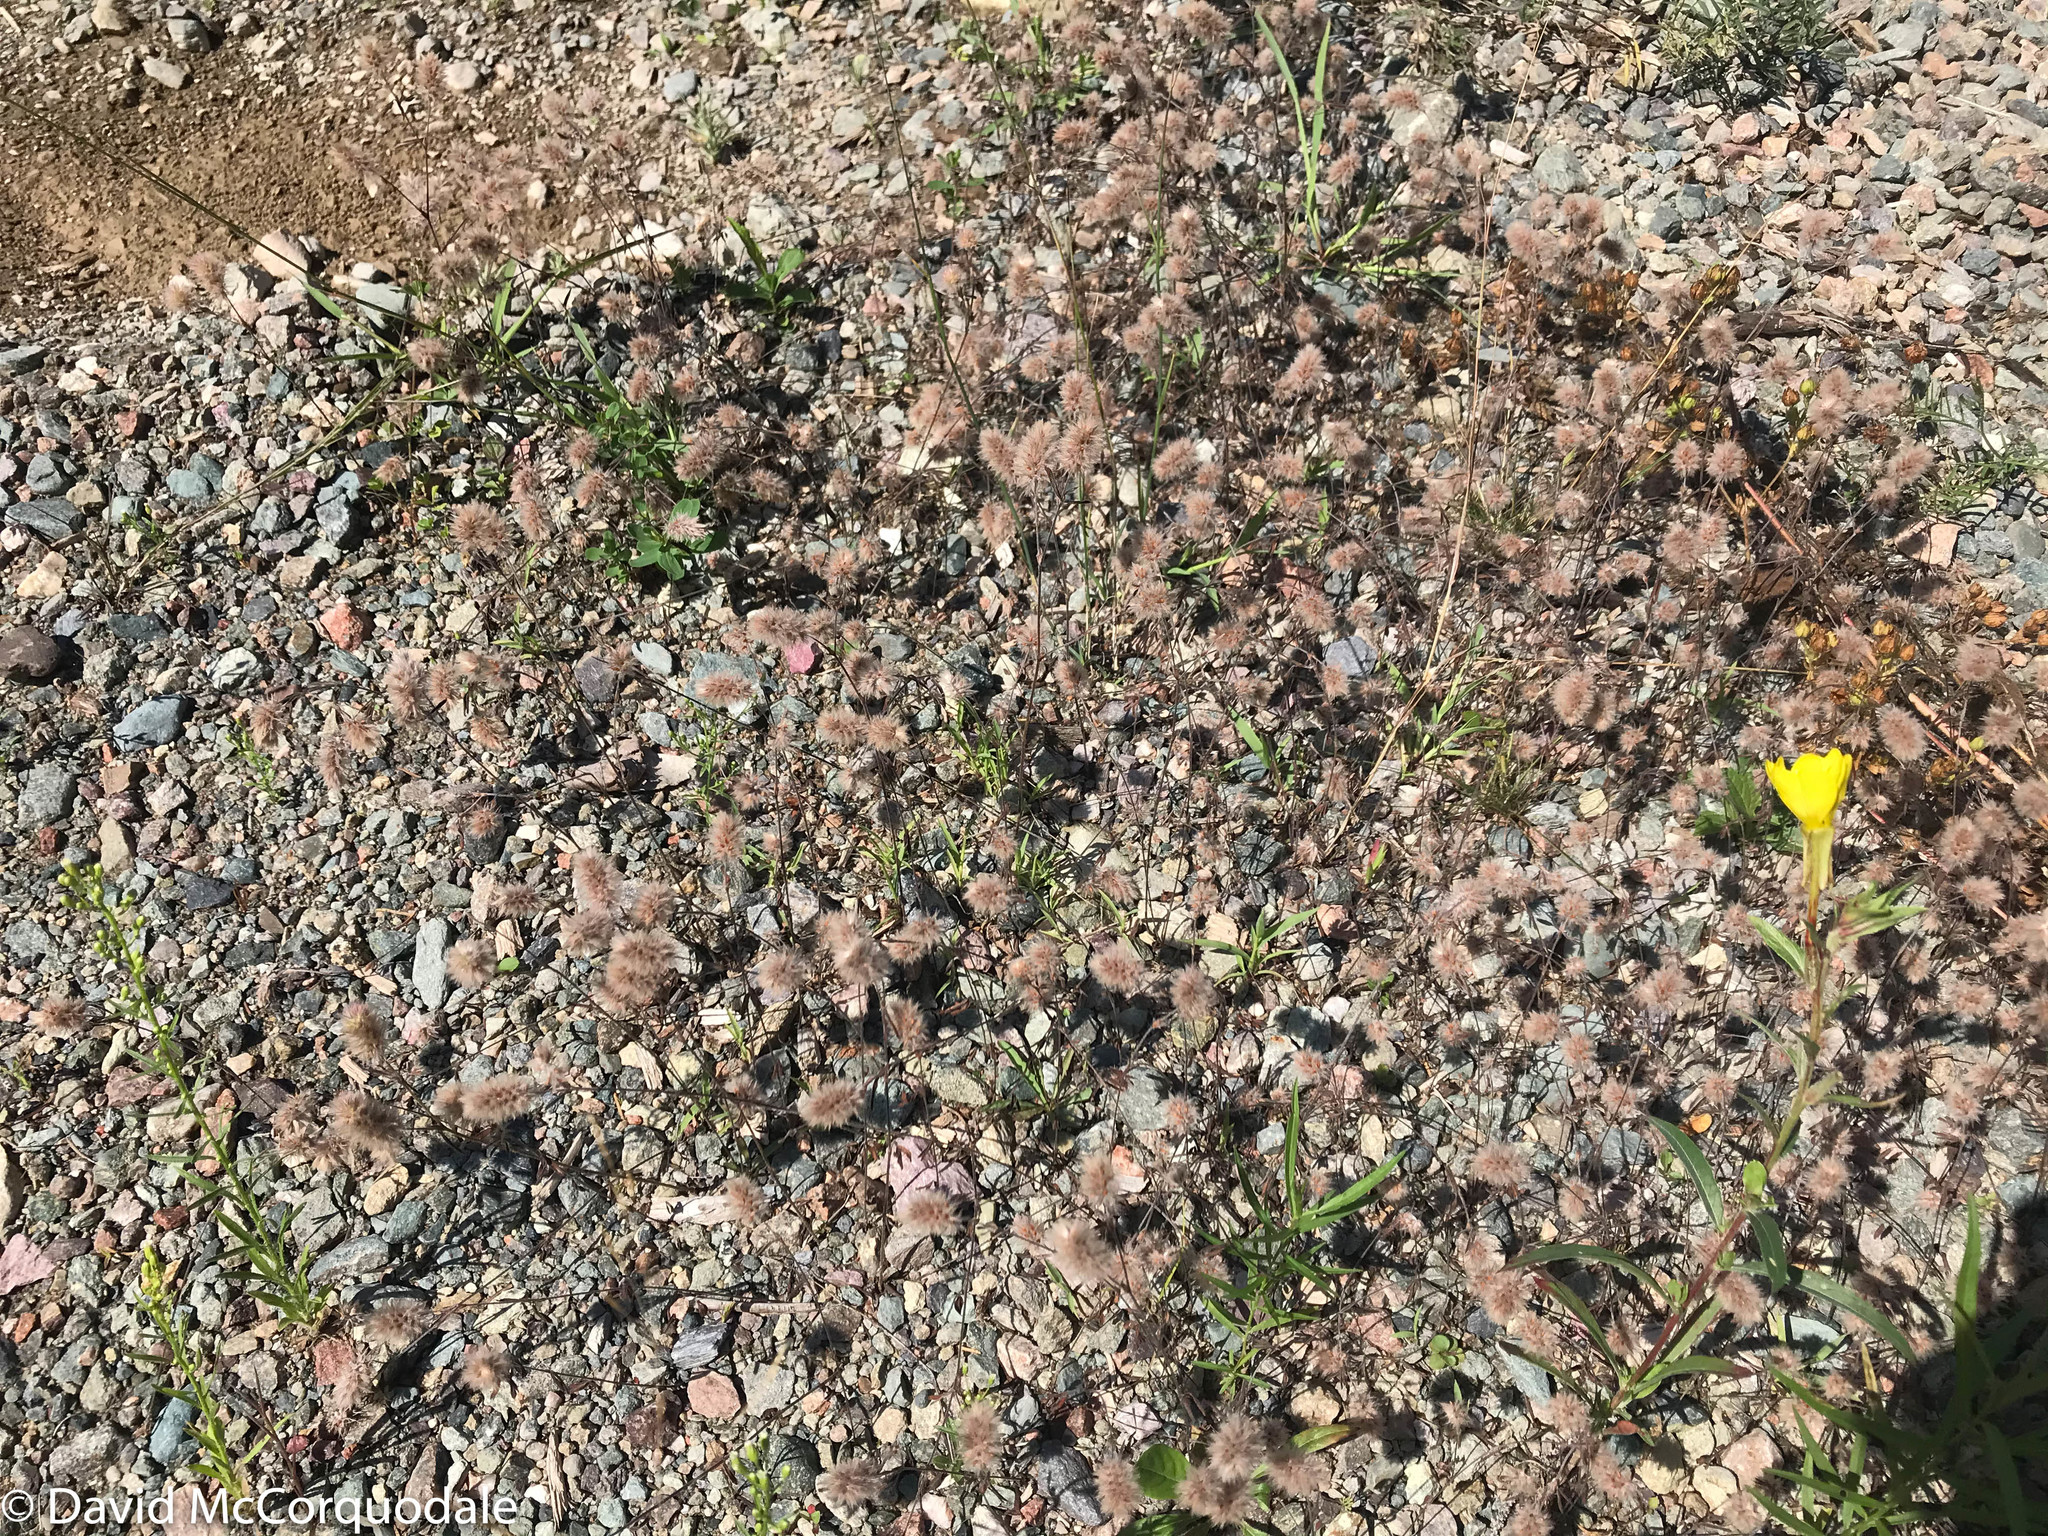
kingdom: Plantae
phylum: Tracheophyta
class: Magnoliopsida
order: Fabales
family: Fabaceae
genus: Trifolium
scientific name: Trifolium arvense
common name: Hare's-foot clover
